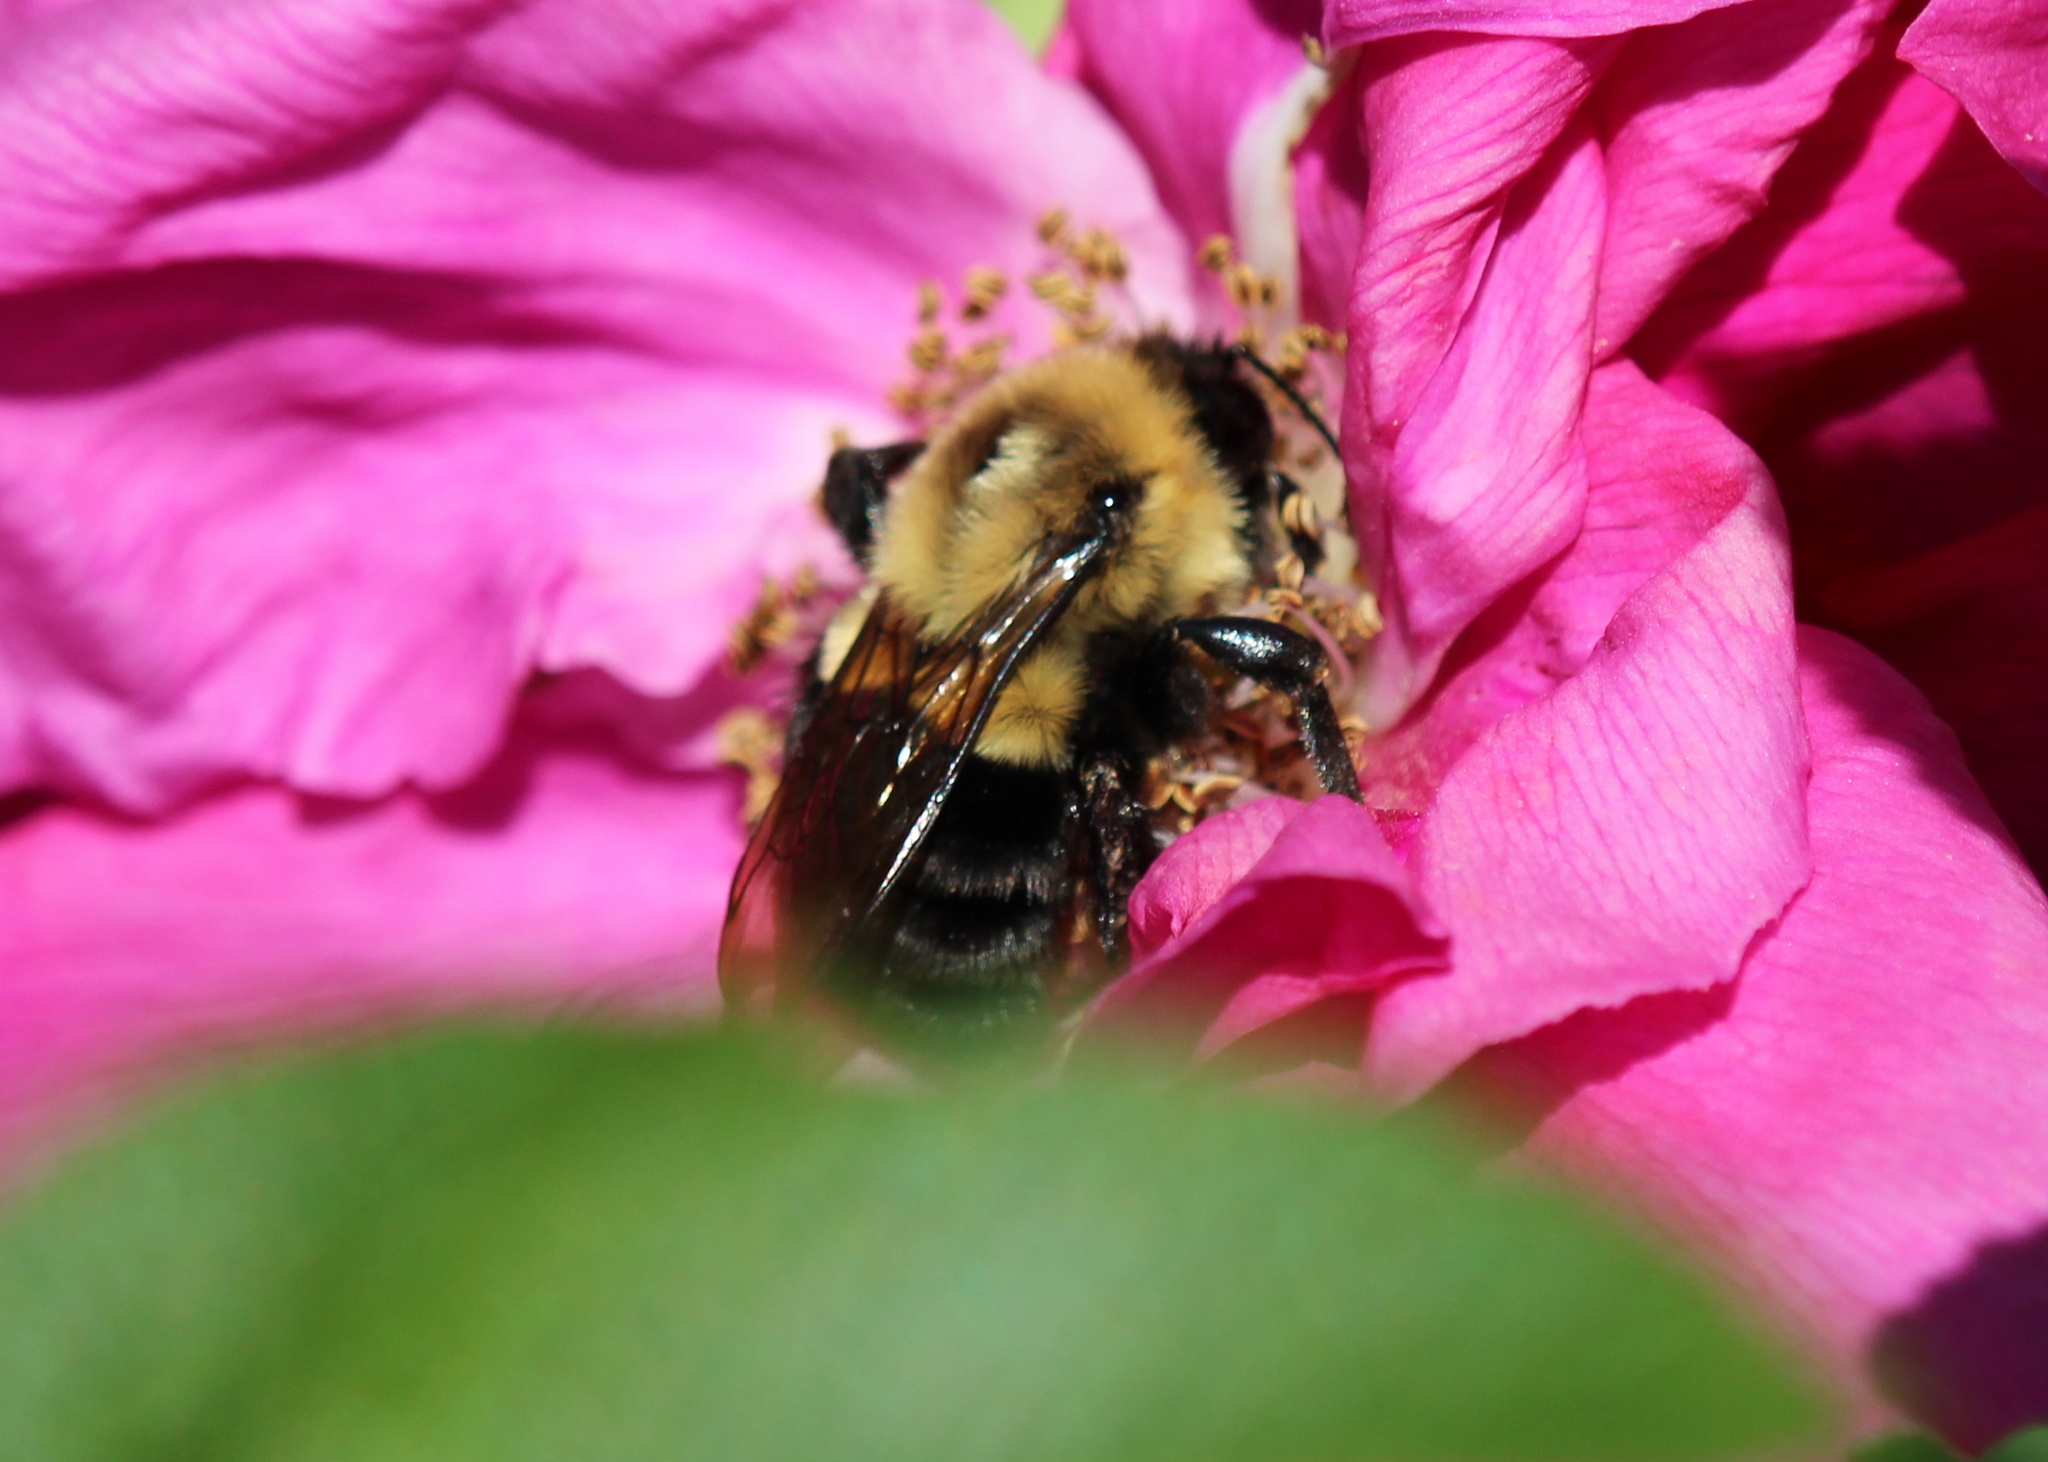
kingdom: Animalia
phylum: Arthropoda
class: Insecta
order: Hymenoptera
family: Apidae
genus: Bombus
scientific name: Bombus impatiens
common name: Common eastern bumble bee
